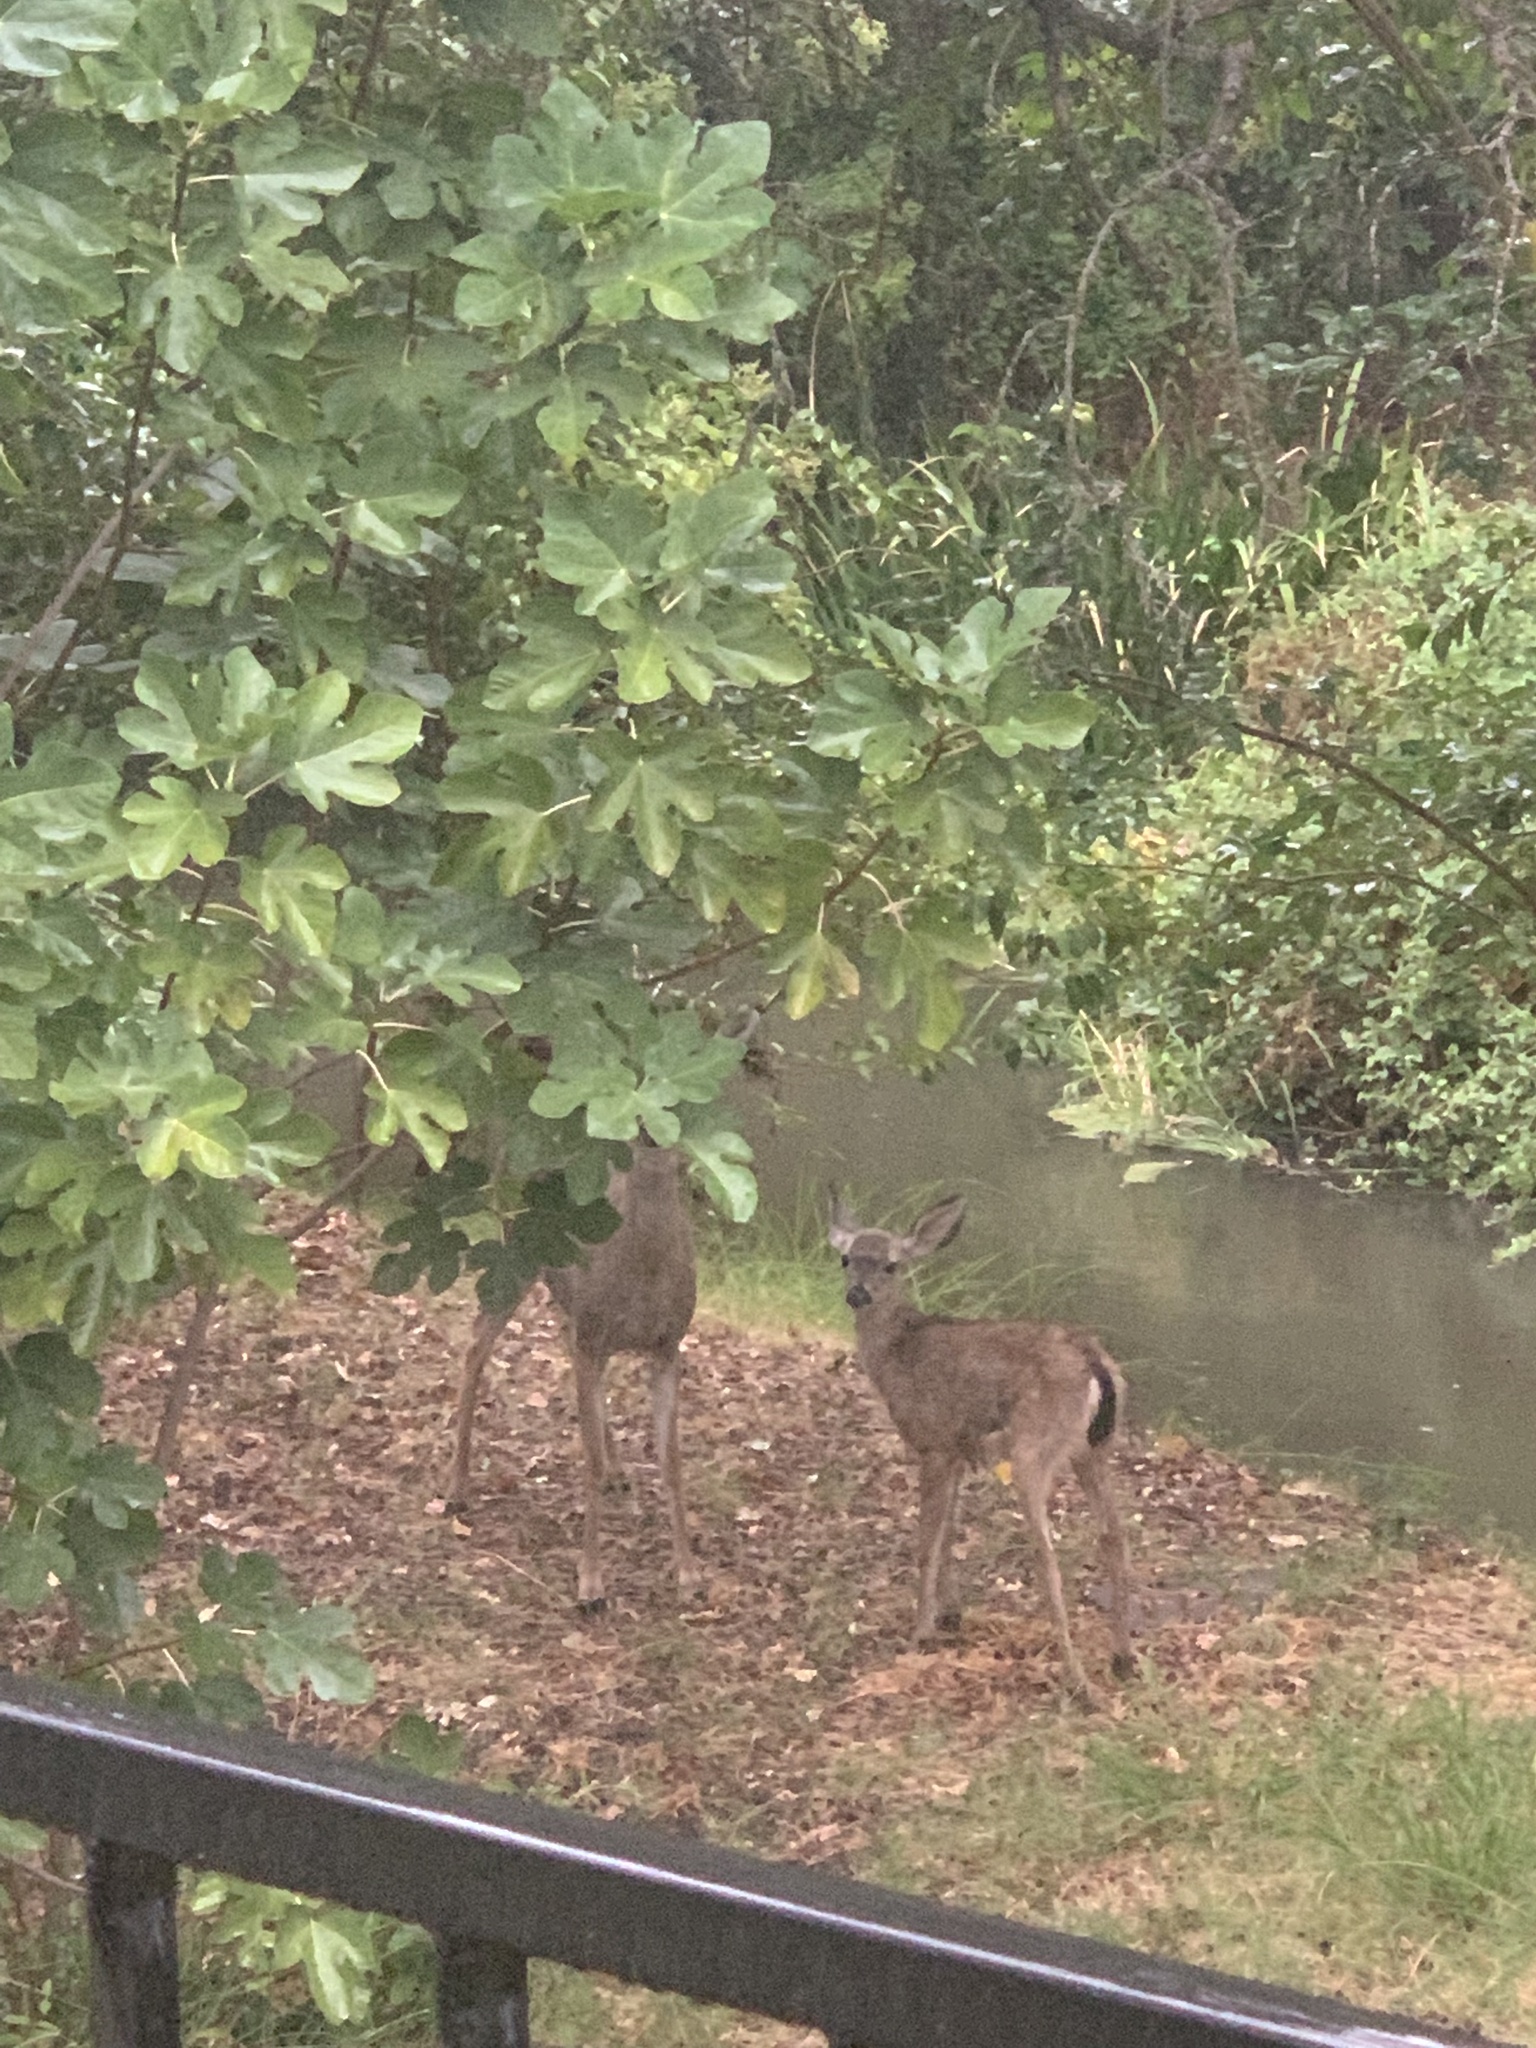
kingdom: Animalia
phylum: Chordata
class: Mammalia
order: Artiodactyla
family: Cervidae
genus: Odocoileus
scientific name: Odocoileus hemionus
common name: Mule deer
